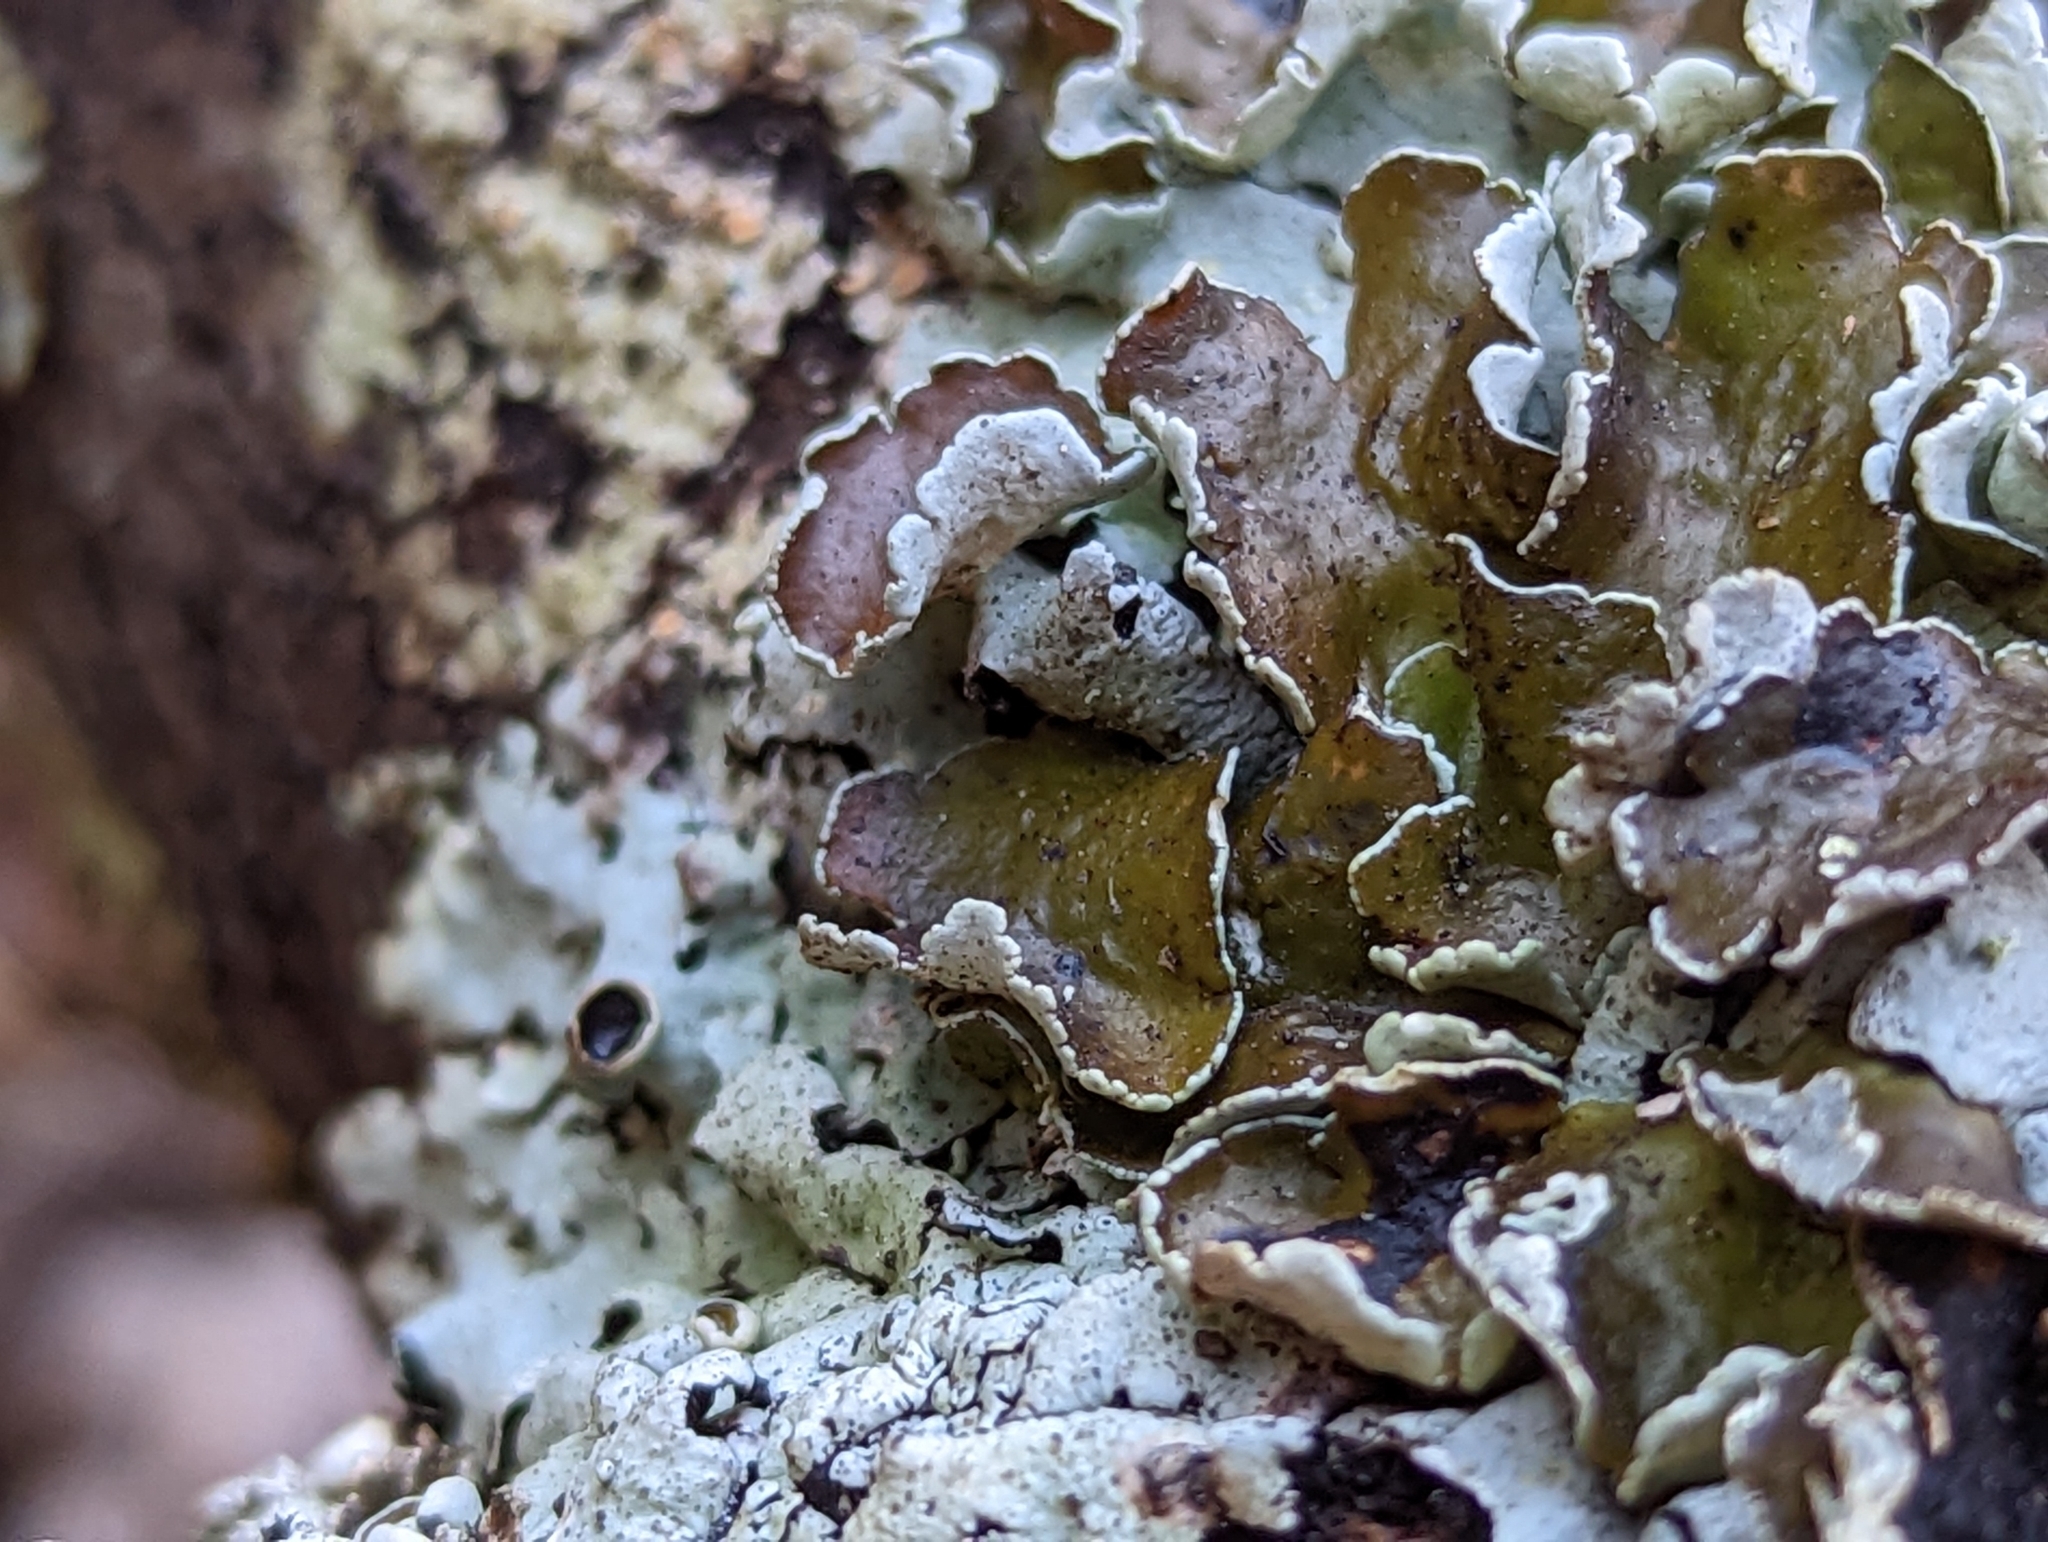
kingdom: Fungi
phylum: Ascomycota
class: Lecanoromycetes
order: Lecanorales
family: Parmeliaceae
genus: Hypotrachyna
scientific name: Hypotrachyna livida
